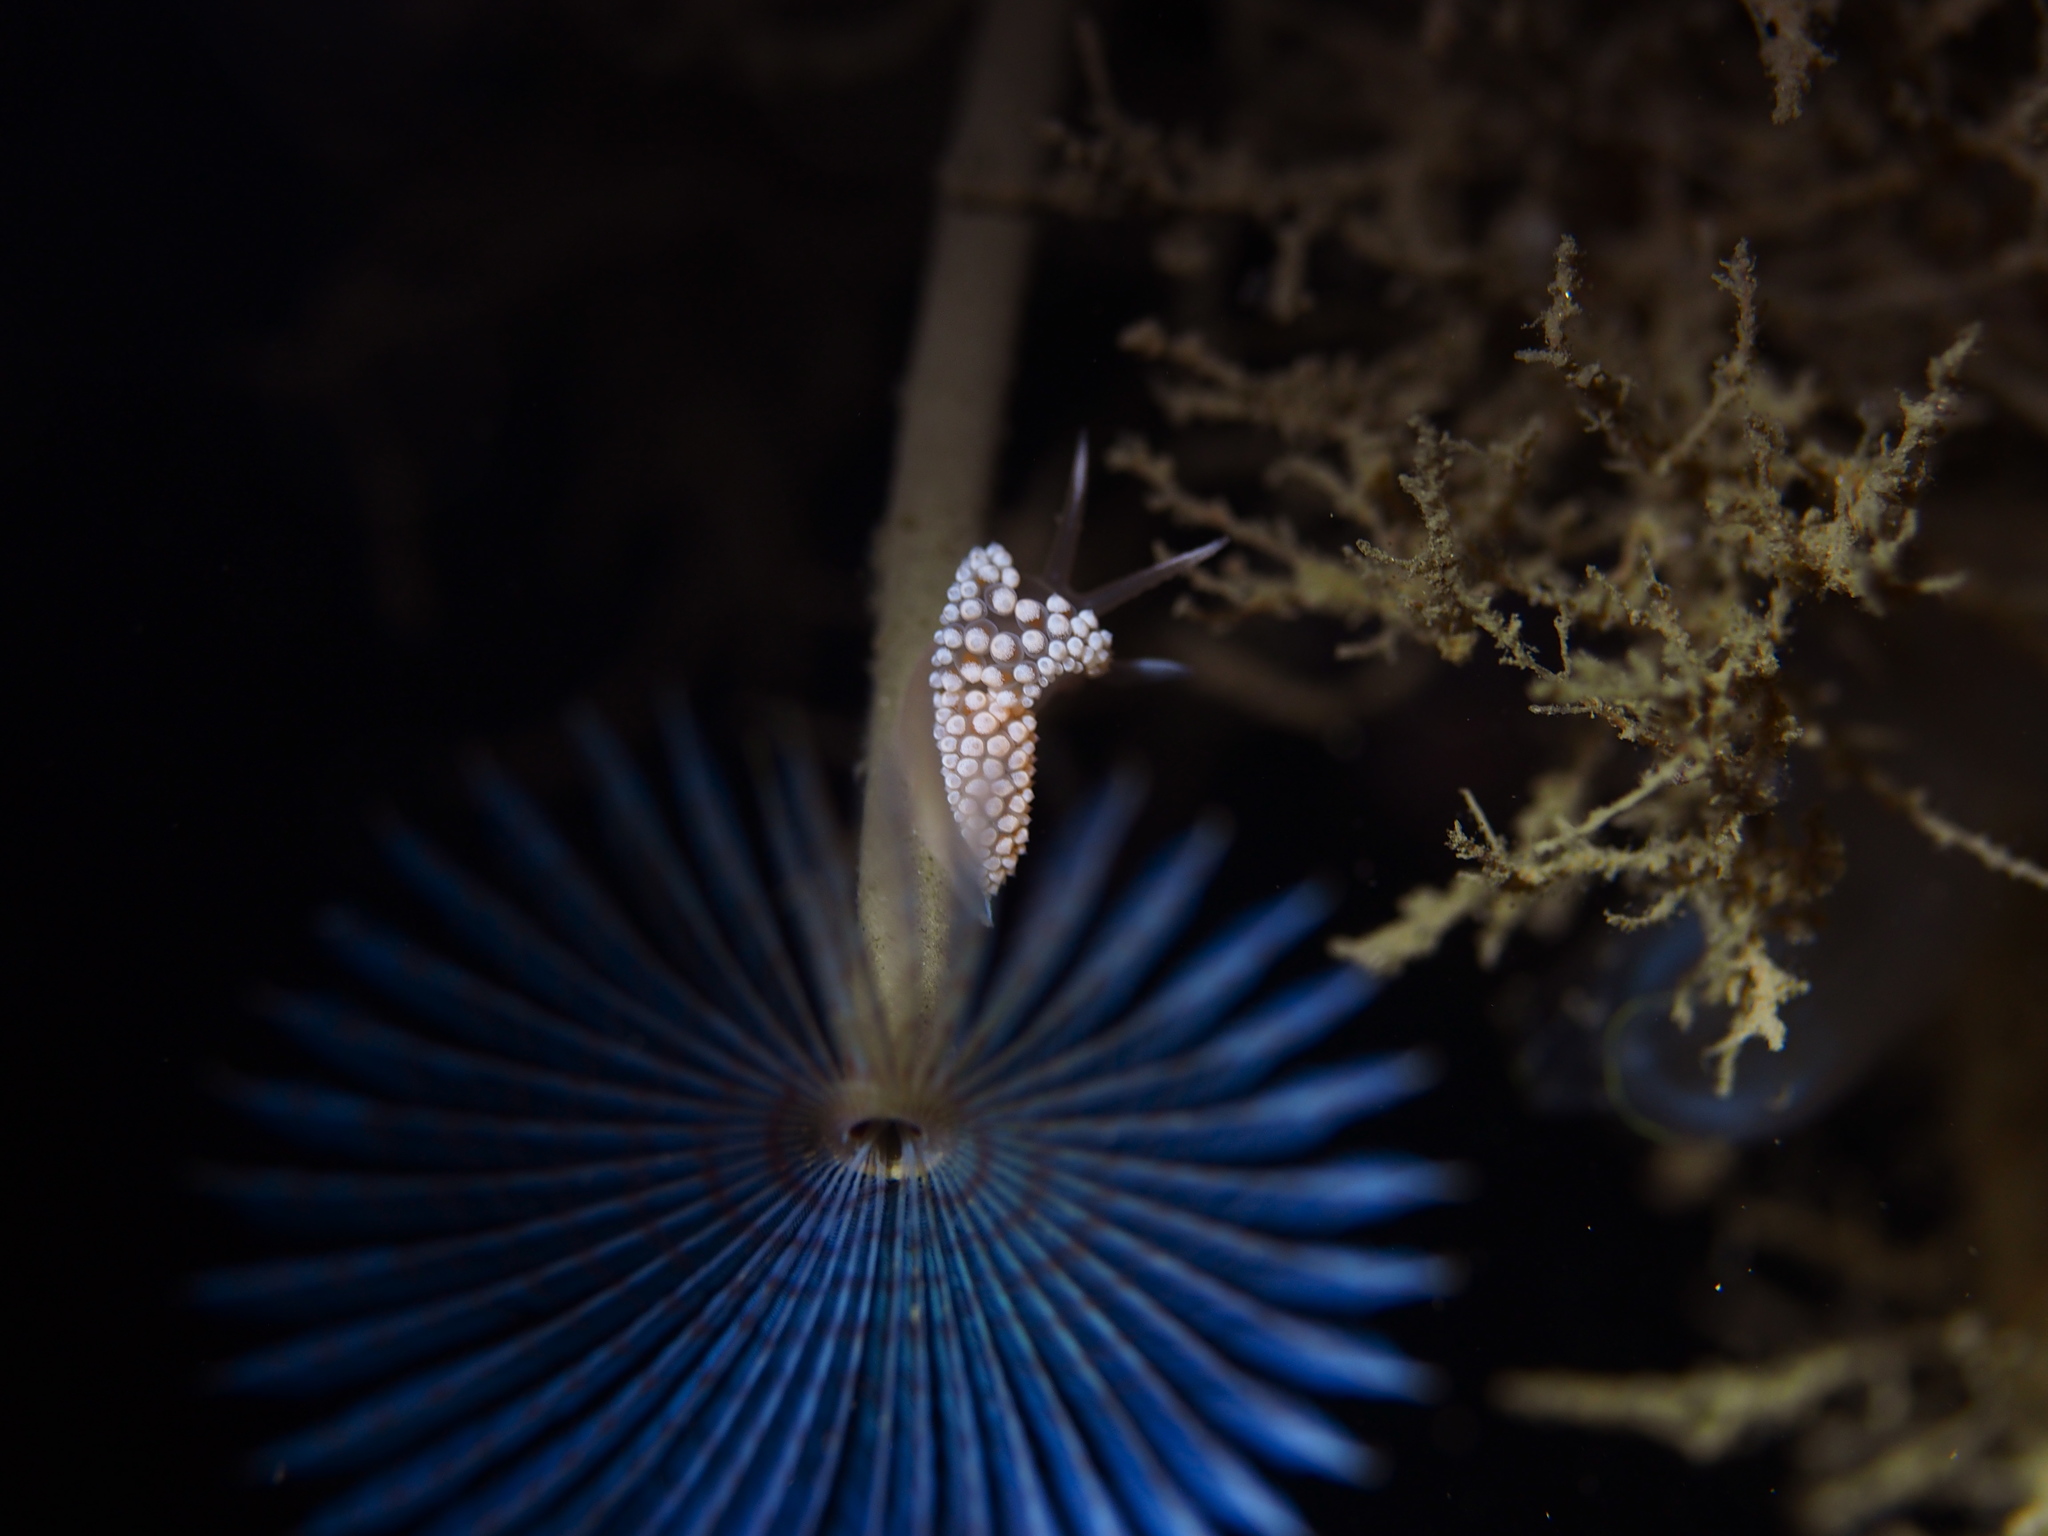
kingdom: Animalia
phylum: Mollusca
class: Gastropoda
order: Nudibranchia
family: Coryphellidae
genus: Coryphella
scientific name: Coryphella verrucosa
